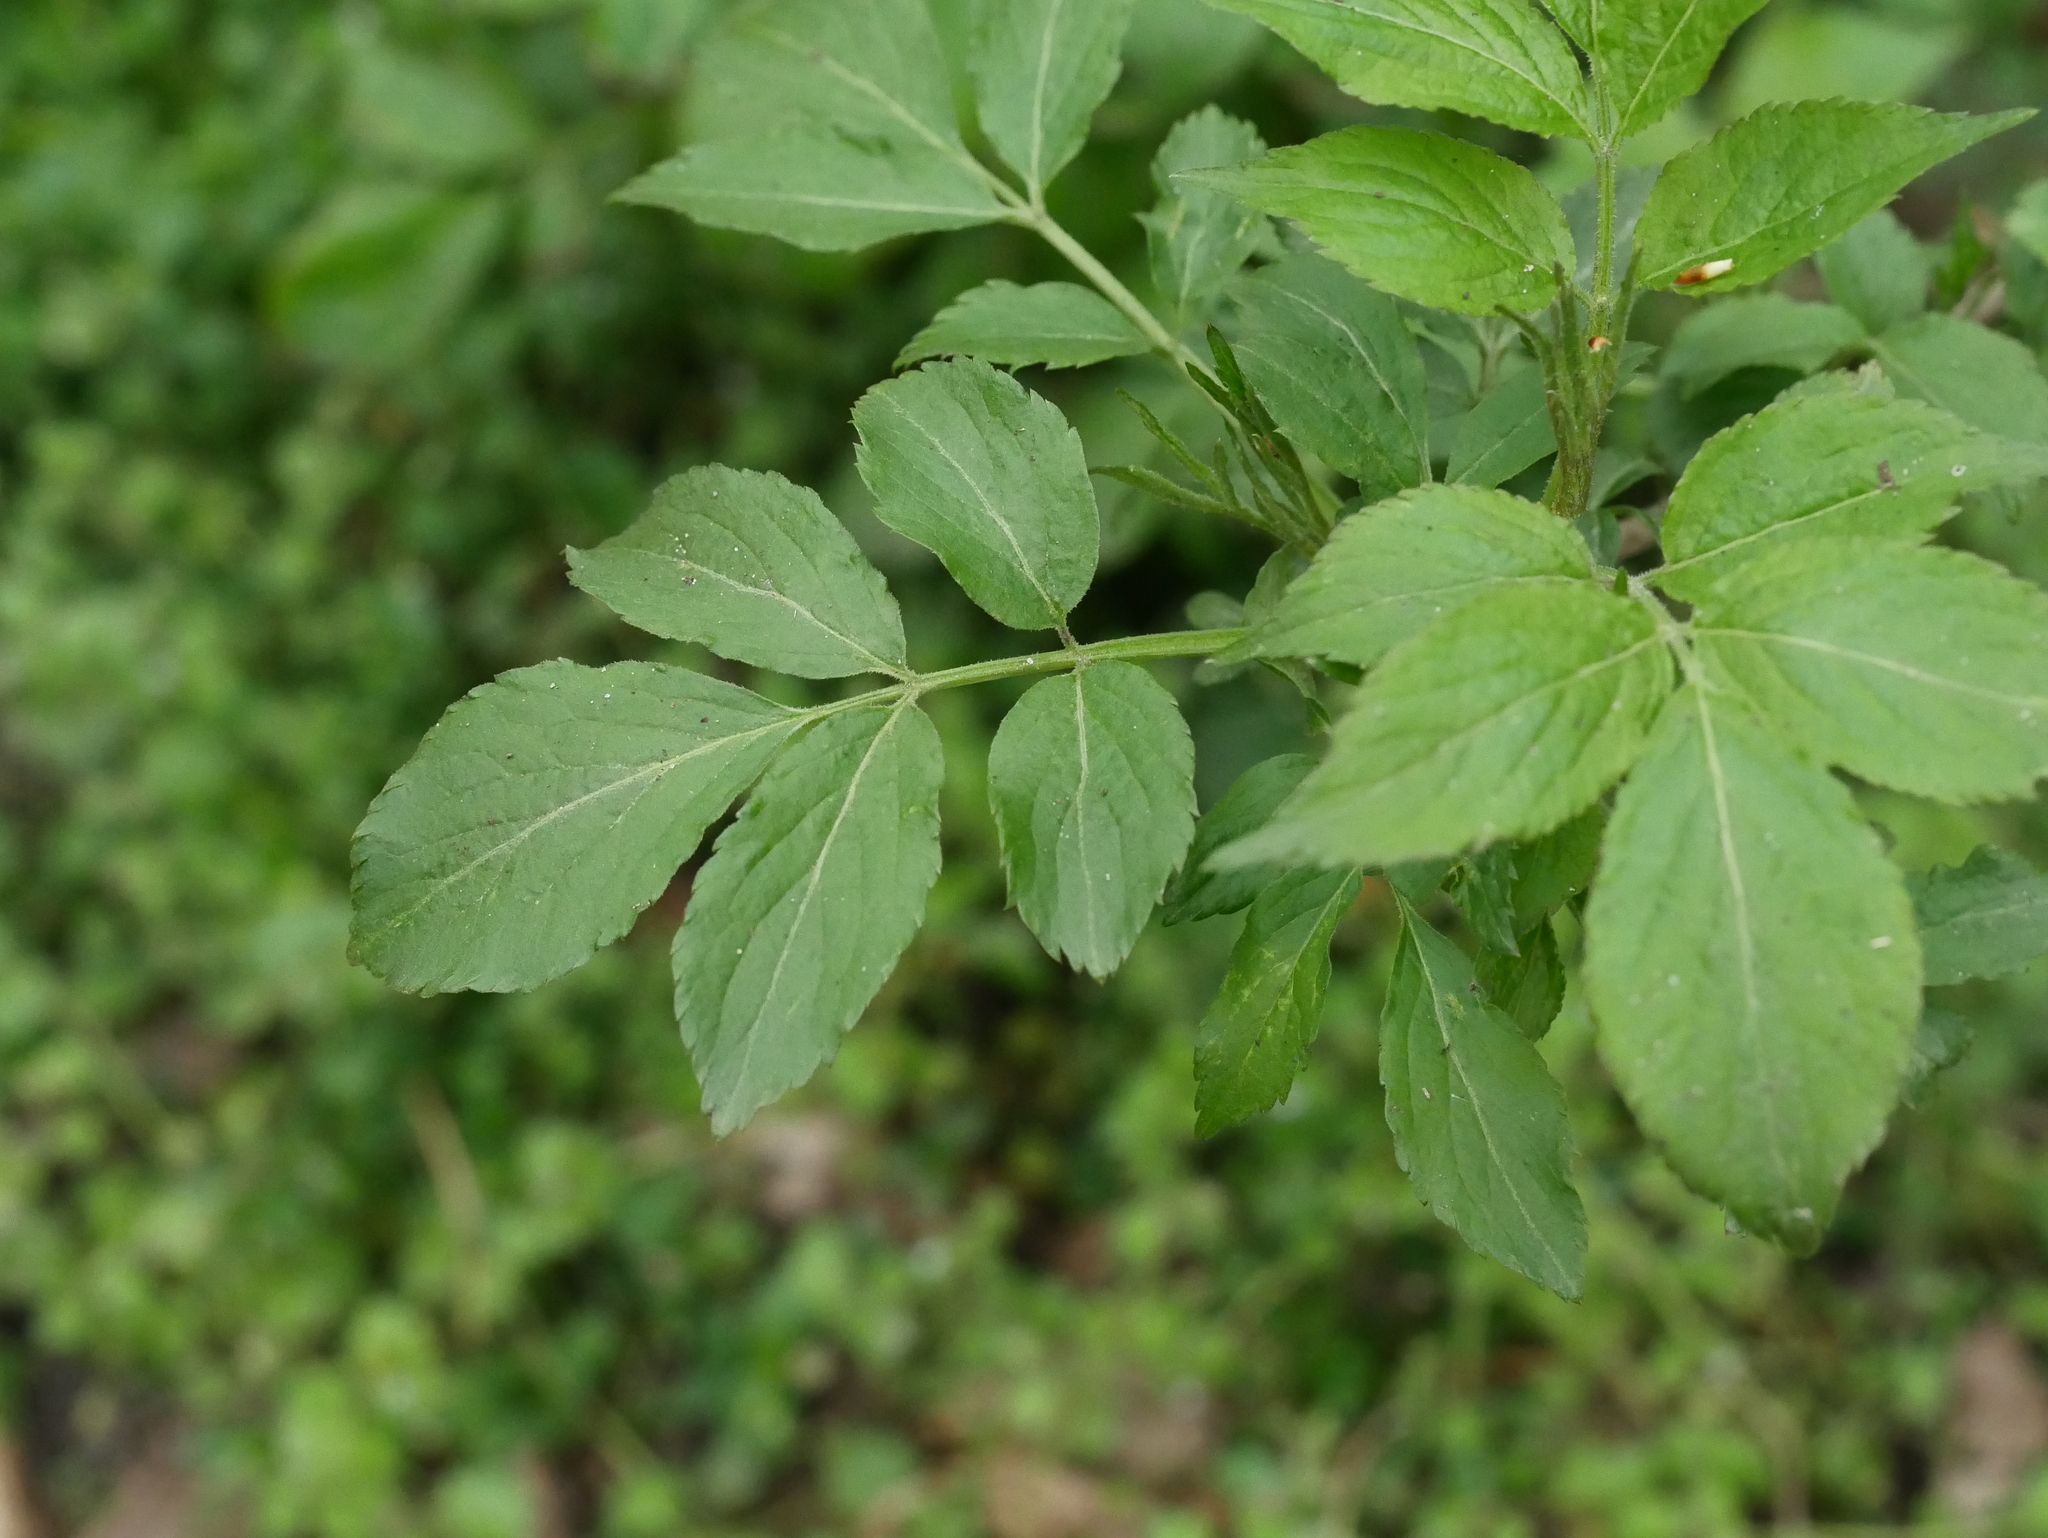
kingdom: Plantae
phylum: Tracheophyta
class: Magnoliopsida
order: Dipsacales
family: Viburnaceae
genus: Sambucus
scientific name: Sambucus nigra
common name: Elder
